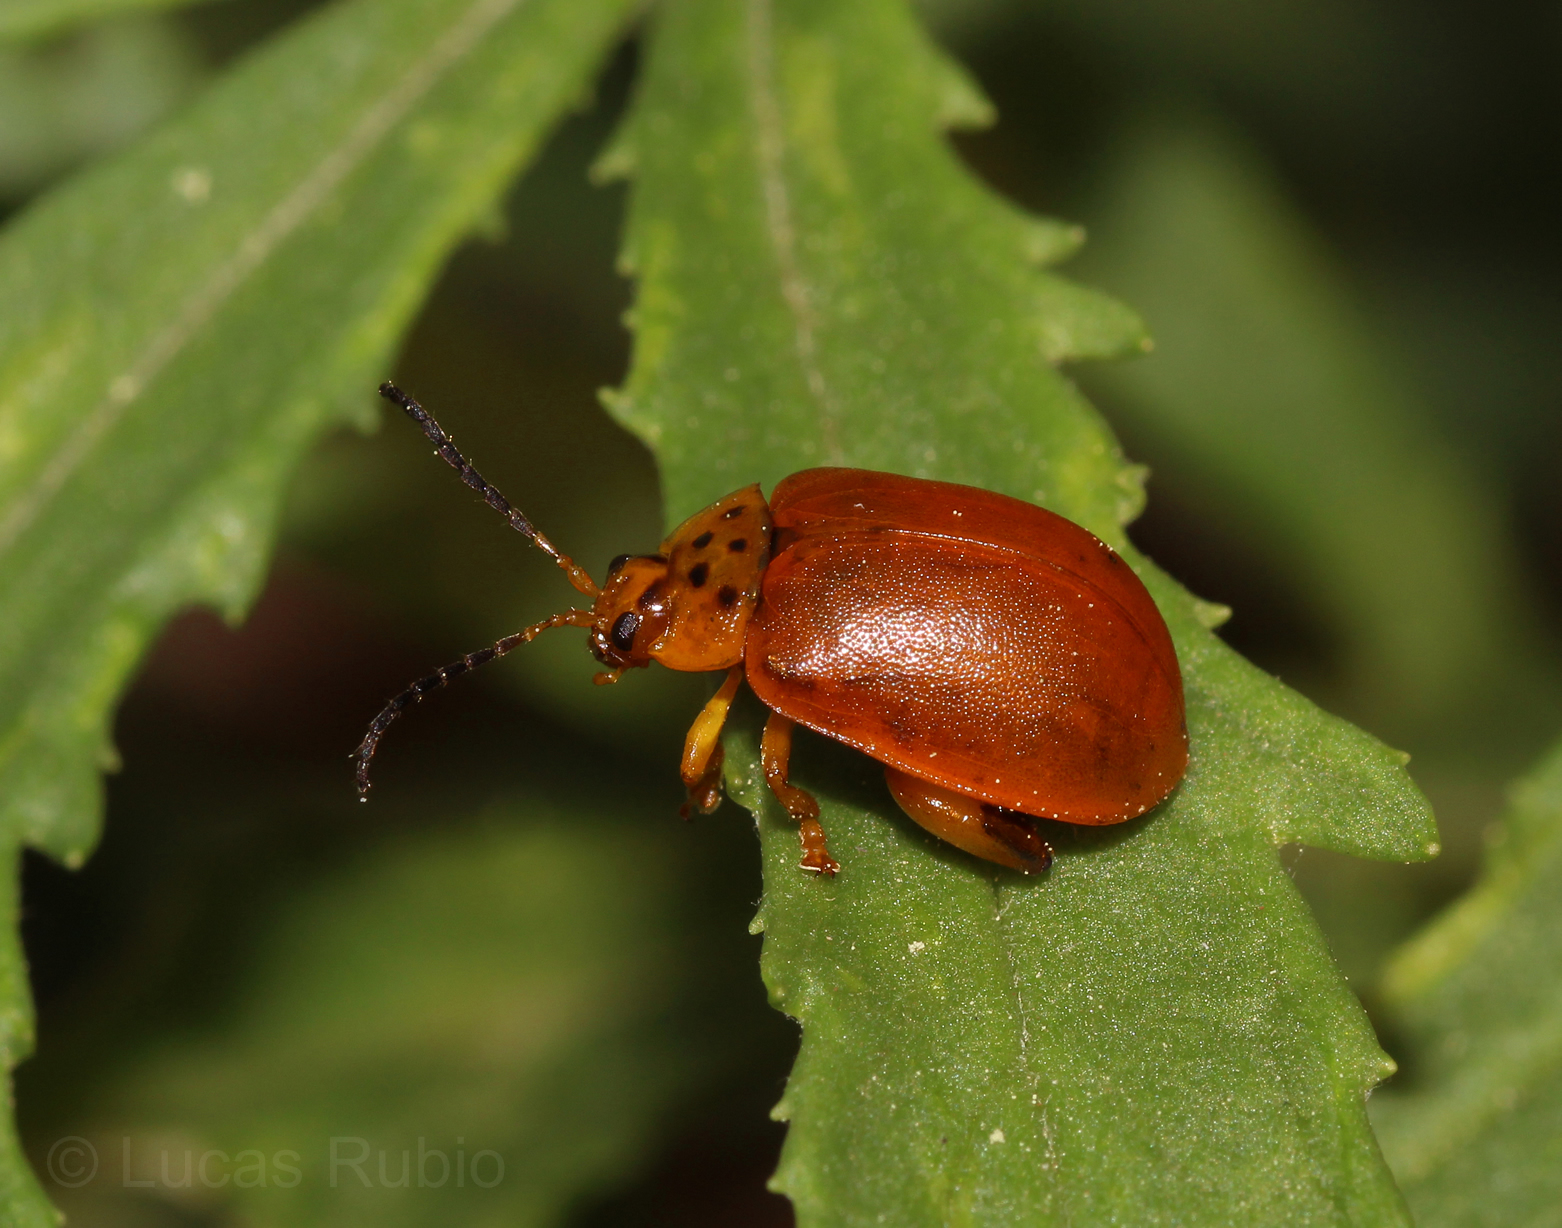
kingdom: Animalia
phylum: Arthropoda
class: Insecta
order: Coleoptera
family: Chrysomelidae
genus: Paranaita
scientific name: Paranaita
